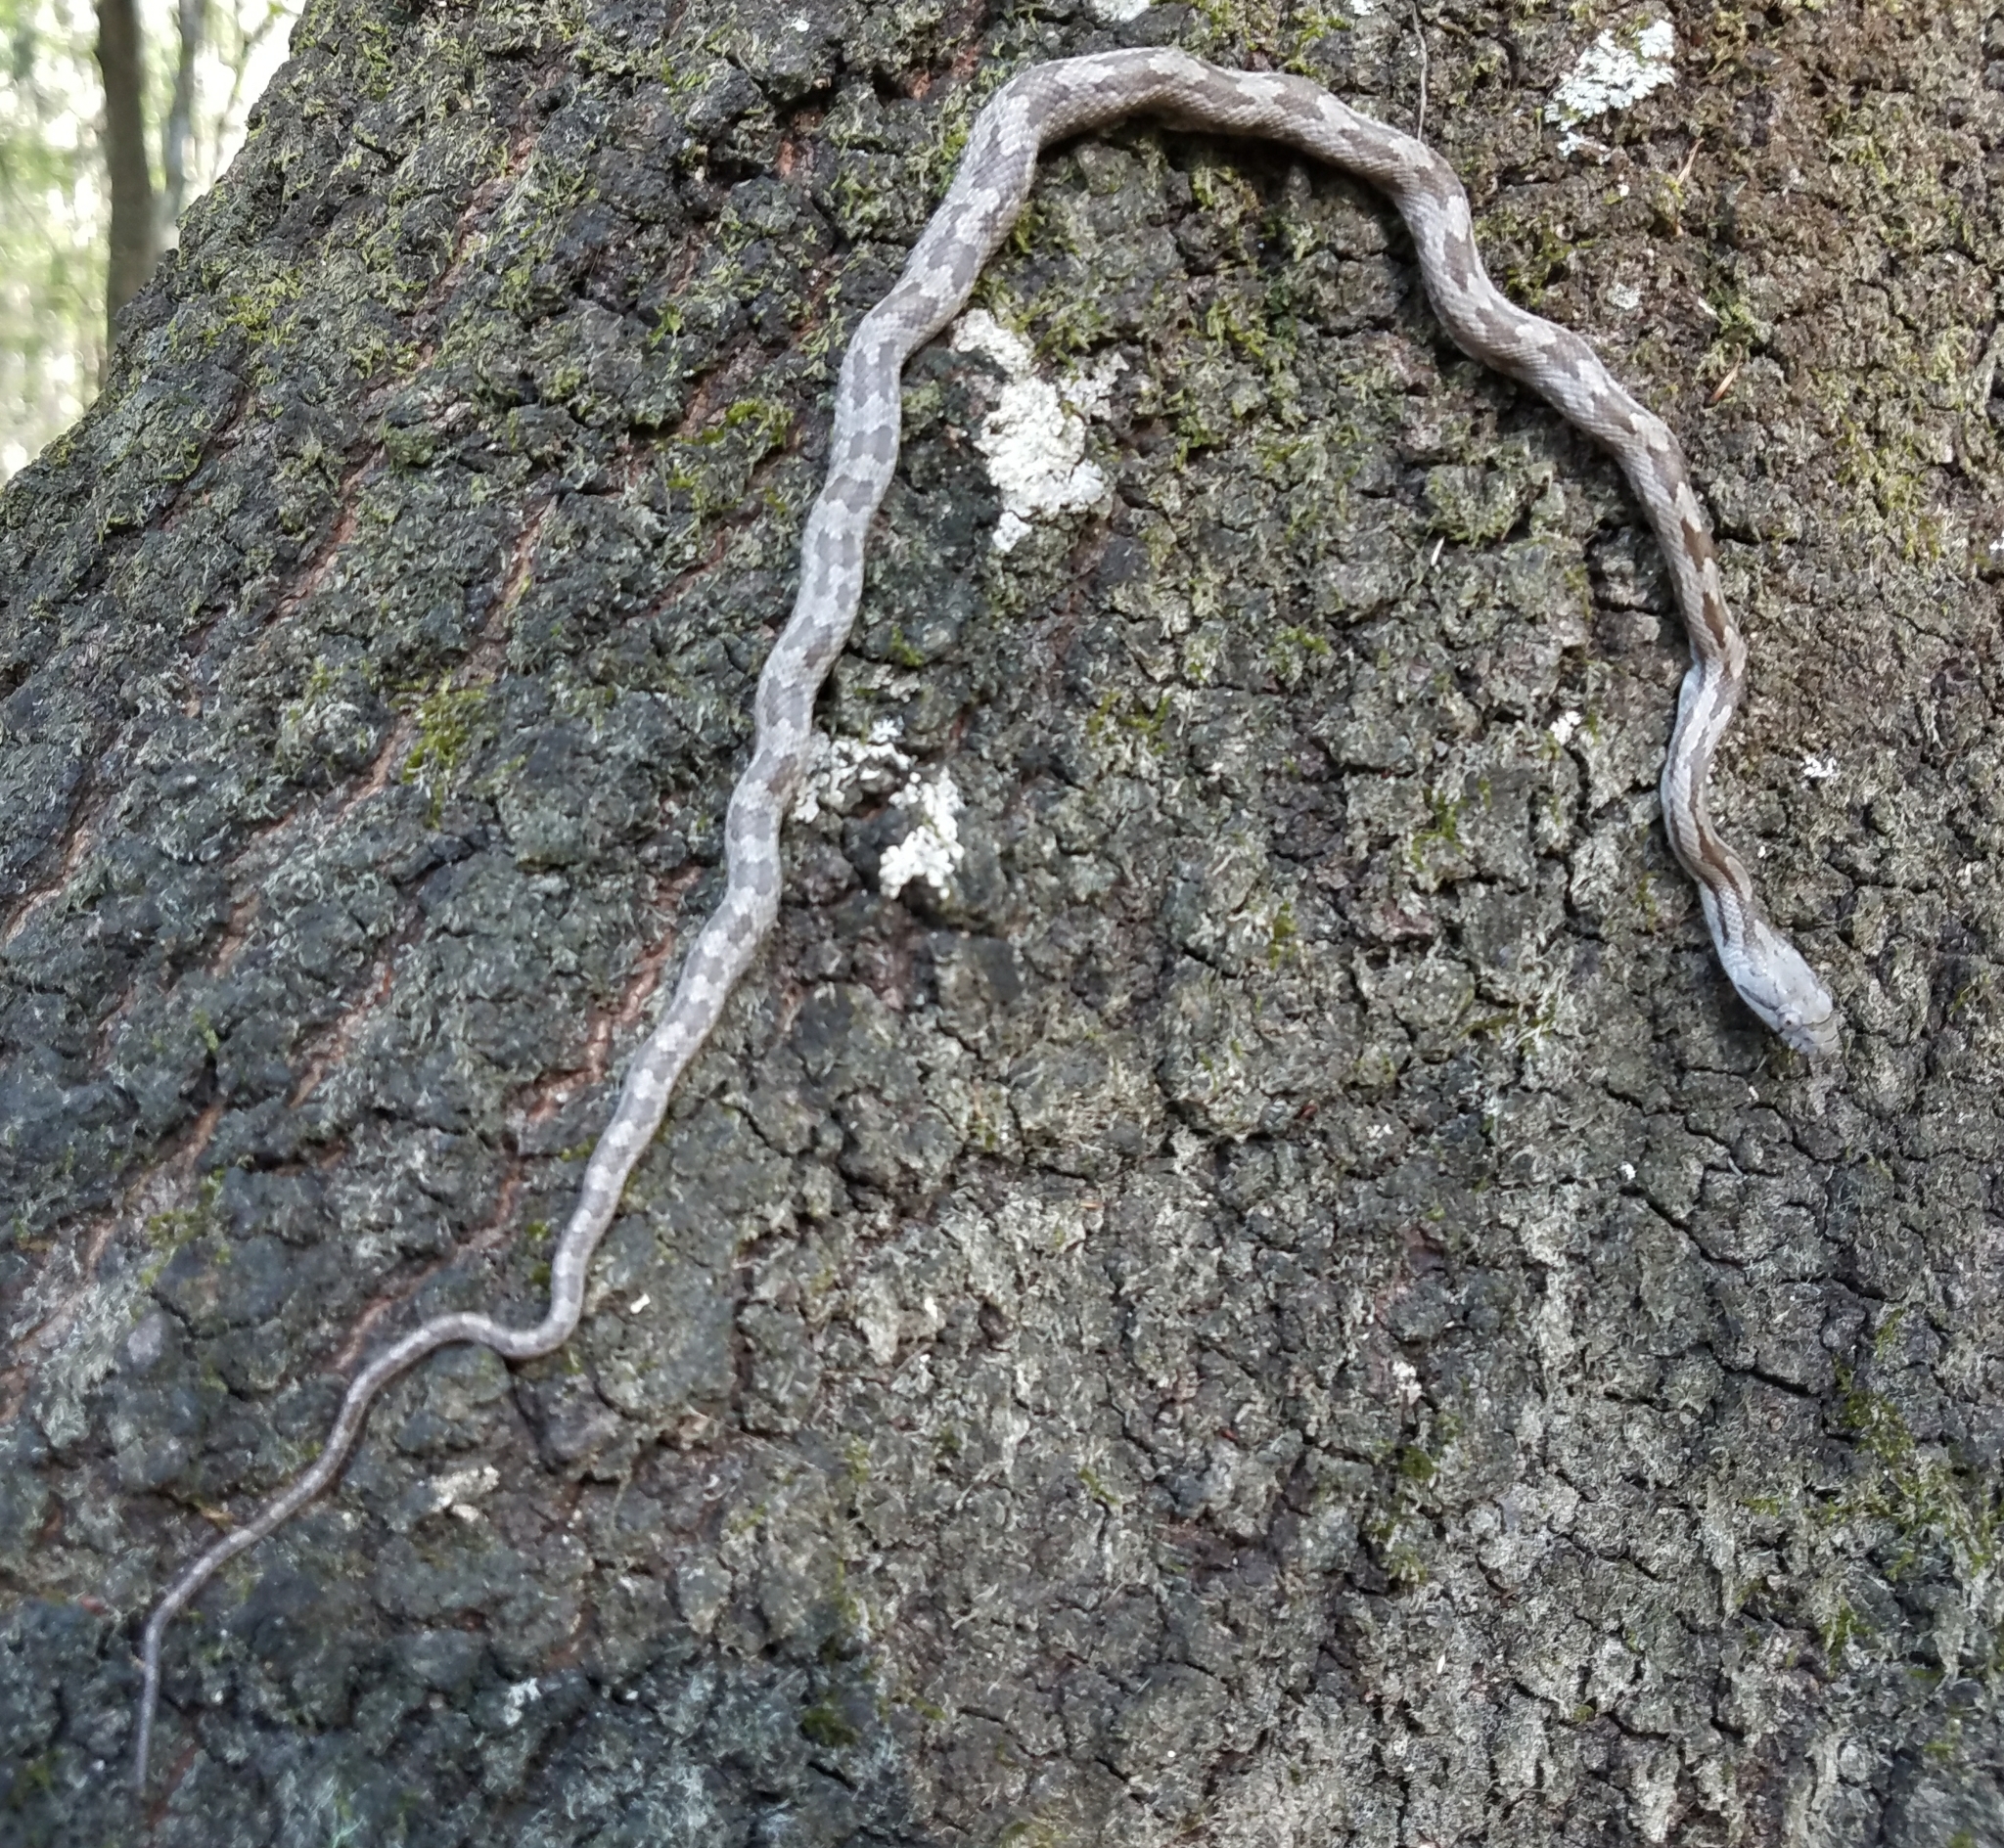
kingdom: Animalia
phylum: Chordata
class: Squamata
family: Colubridae
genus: Pantherophis
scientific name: Pantherophis
